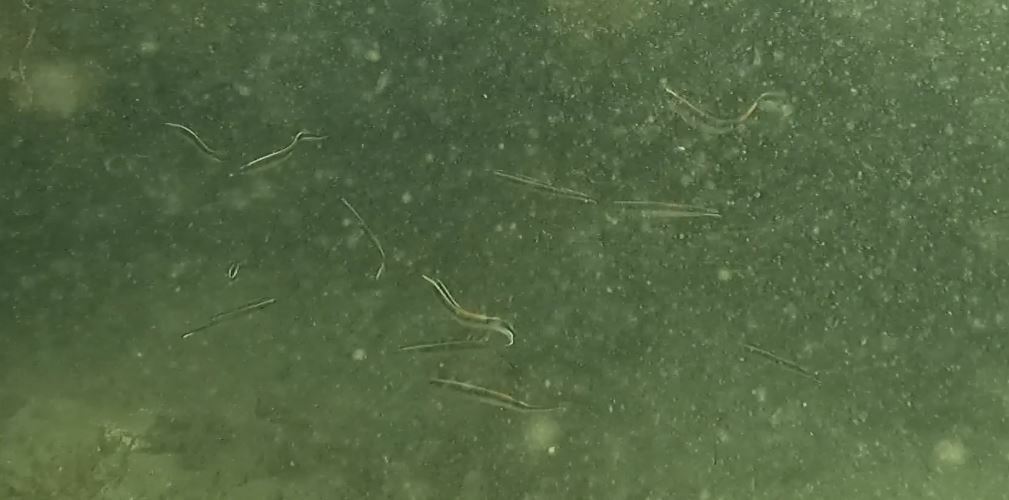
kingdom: Animalia
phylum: Chordata
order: Perciformes
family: Plesiopidae
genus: Trachinops
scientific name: Trachinops taeniatus
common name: Eastern hulafish
